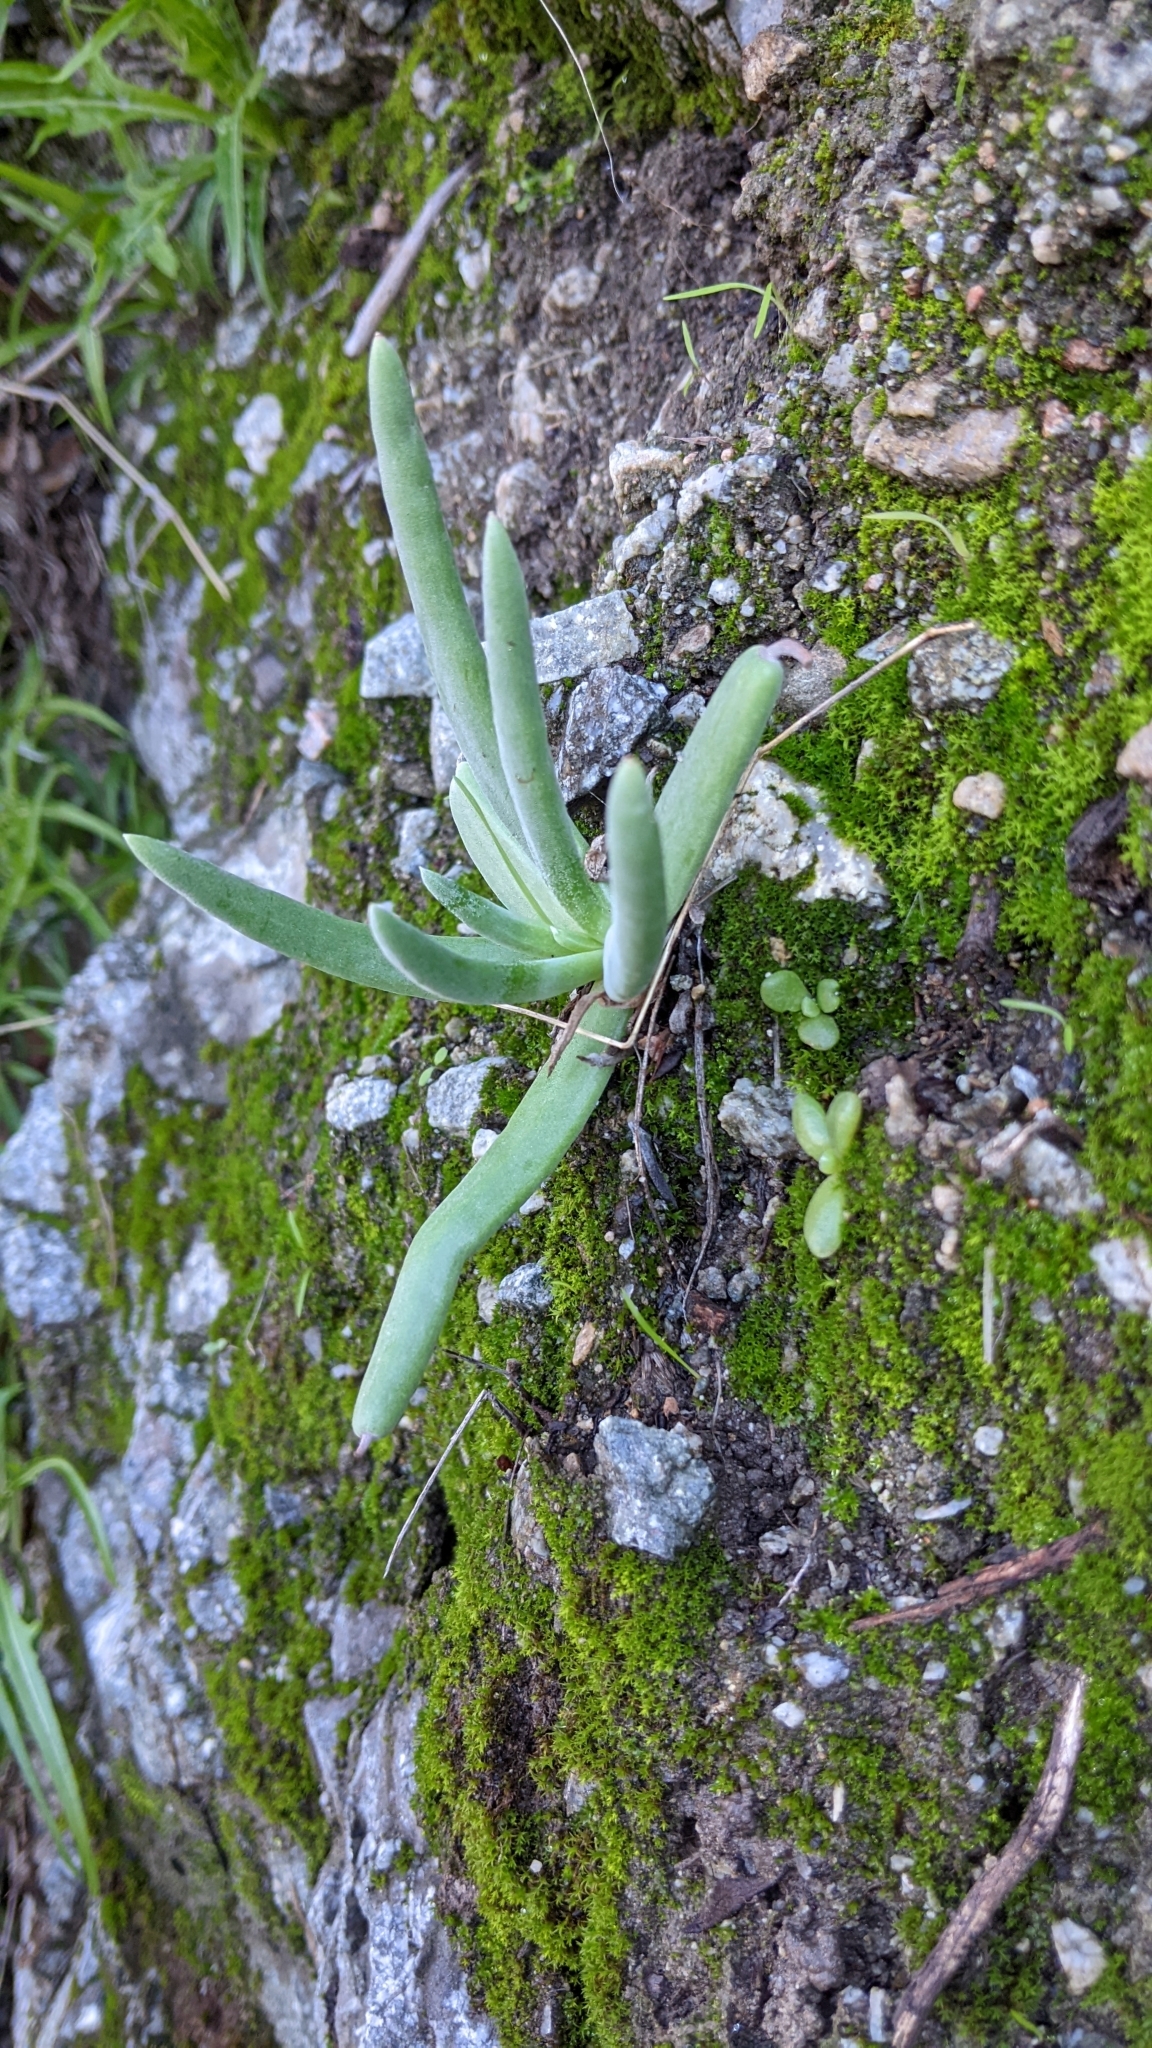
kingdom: Plantae
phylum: Tracheophyta
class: Magnoliopsida
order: Saxifragales
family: Crassulaceae
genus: Dudleya
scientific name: Dudleya densiflora
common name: San gabriel mountains dudleya
